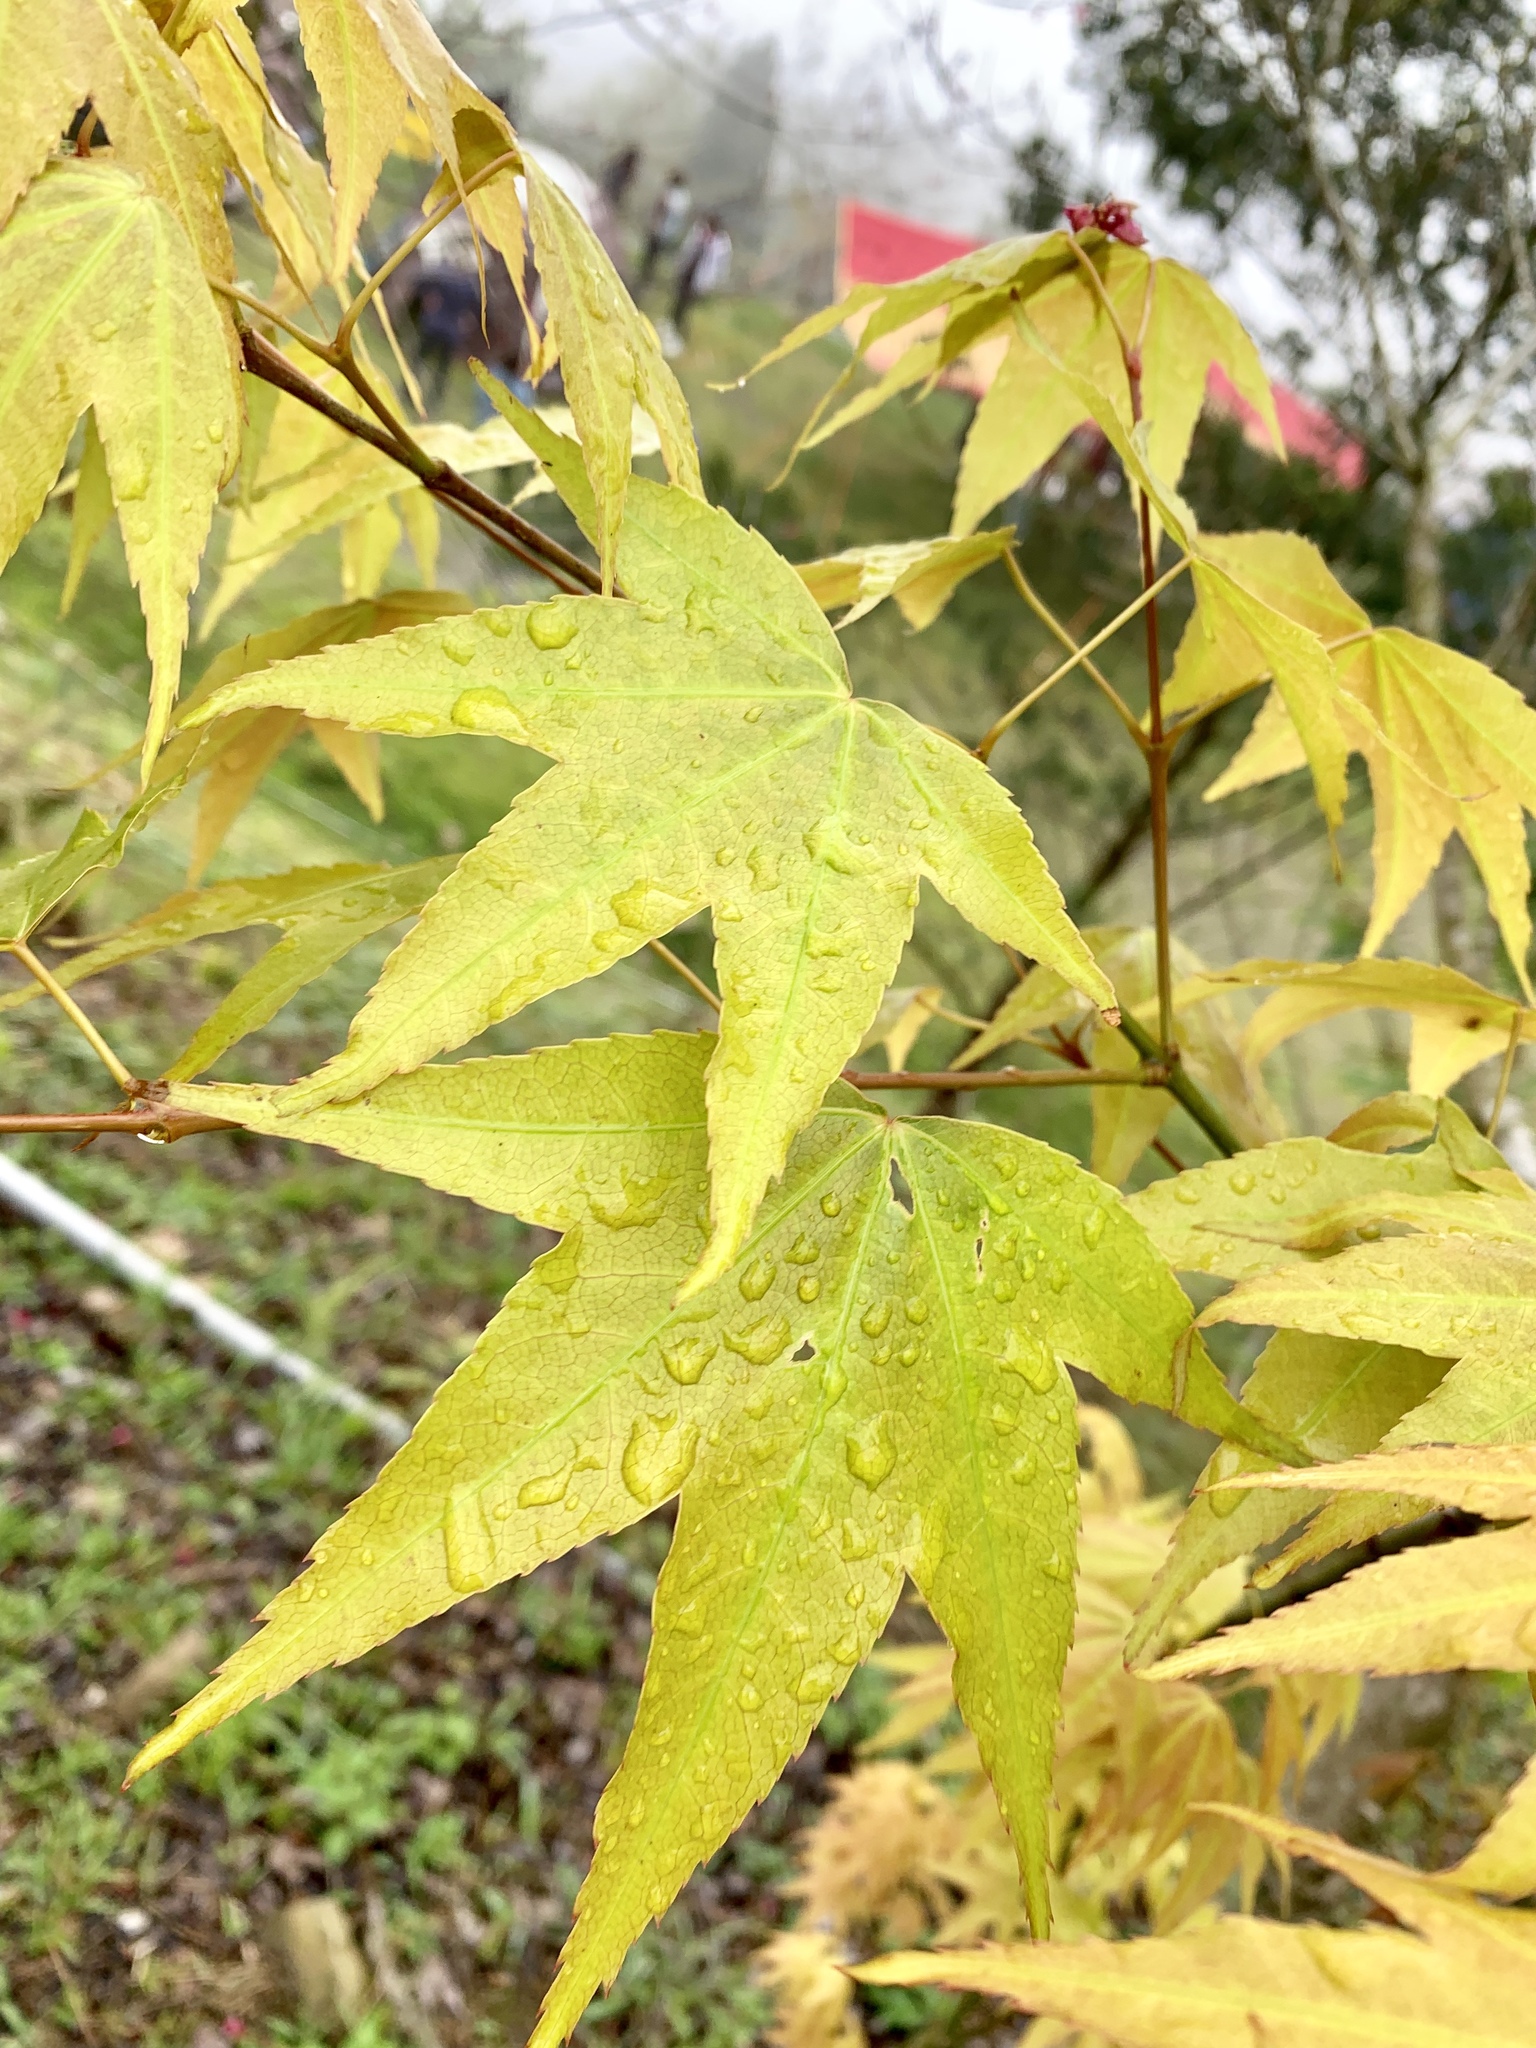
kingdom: Plantae
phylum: Tracheophyta
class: Magnoliopsida
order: Sapindales
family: Sapindaceae
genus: Acer
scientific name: Acer serrulatum
